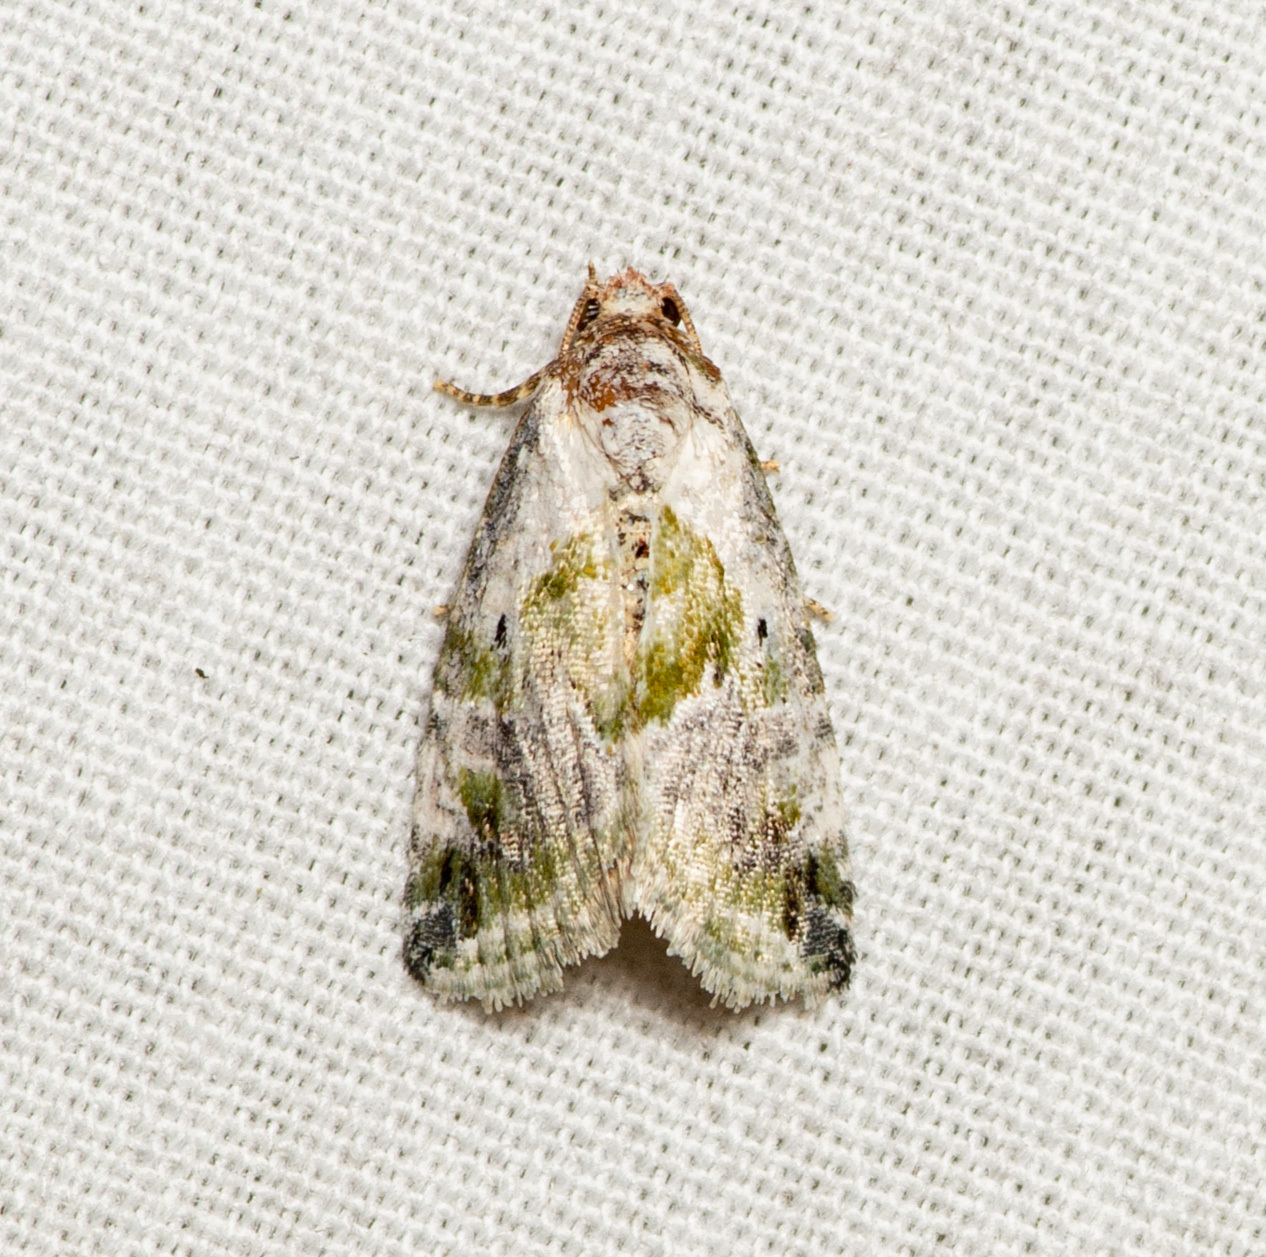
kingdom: Animalia
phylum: Arthropoda
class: Insecta
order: Lepidoptera
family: Noctuidae
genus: Maliattha
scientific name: Maliattha synochitis
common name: Black-dotted glyph
